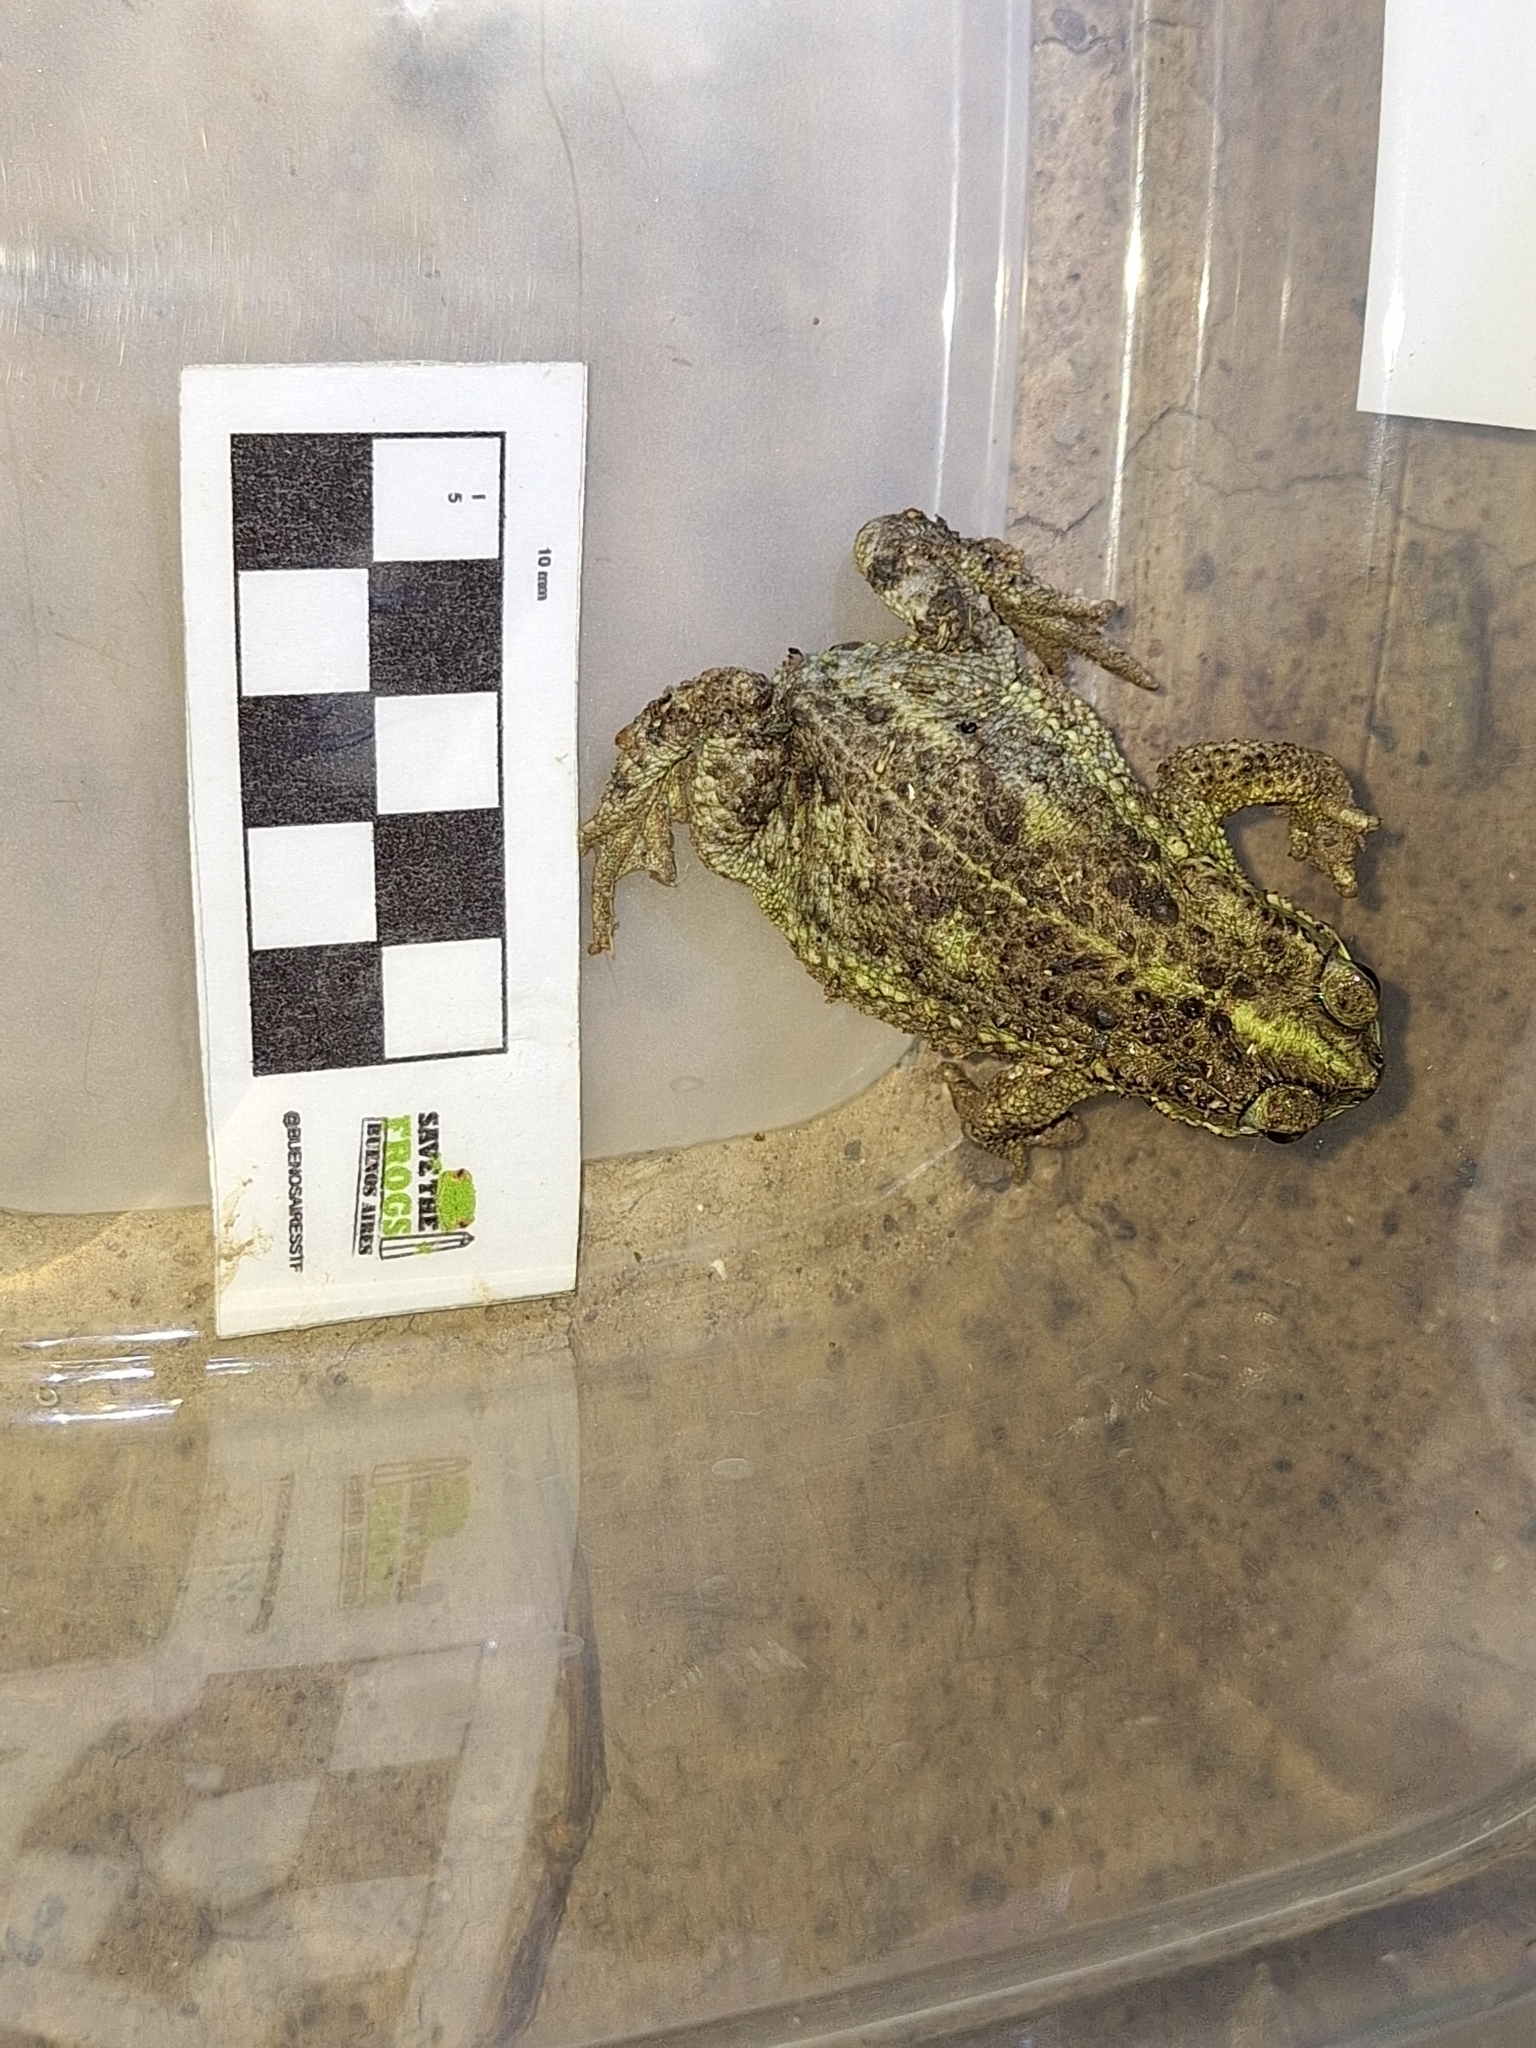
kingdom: Animalia
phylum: Chordata
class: Amphibia
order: Anura
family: Bufonidae
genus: Rhinella
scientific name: Rhinella dorbignyi
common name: D´orbigny’s toad
